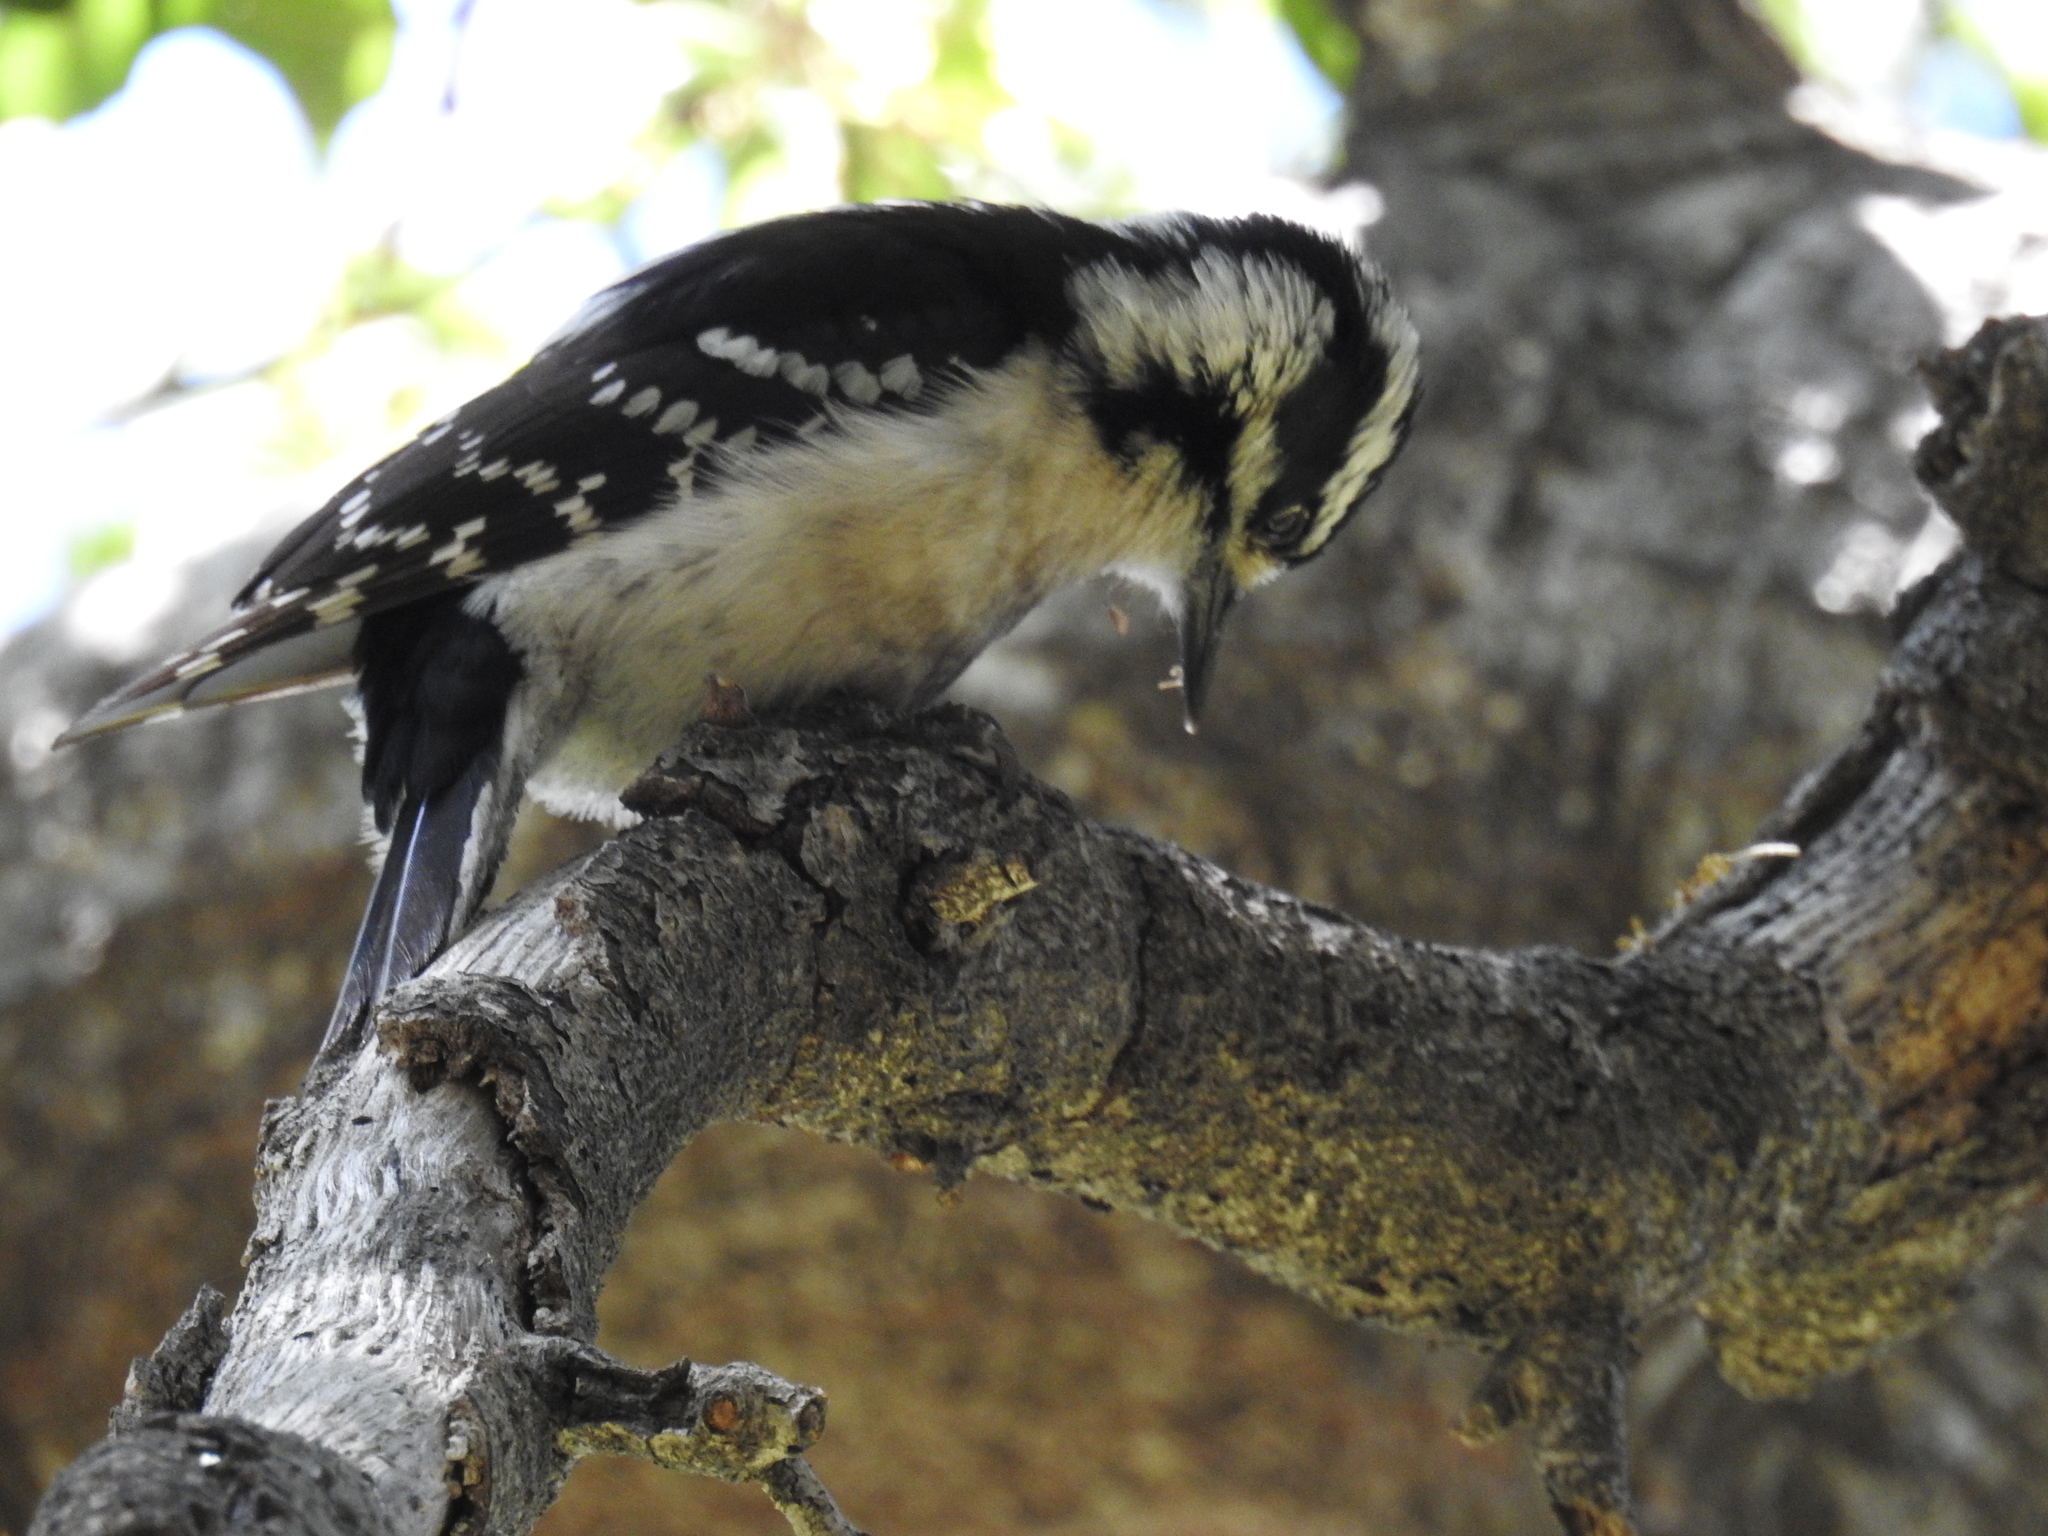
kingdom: Animalia
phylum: Chordata
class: Aves
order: Piciformes
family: Picidae
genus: Dryobates
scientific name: Dryobates pubescens
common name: Downy woodpecker
